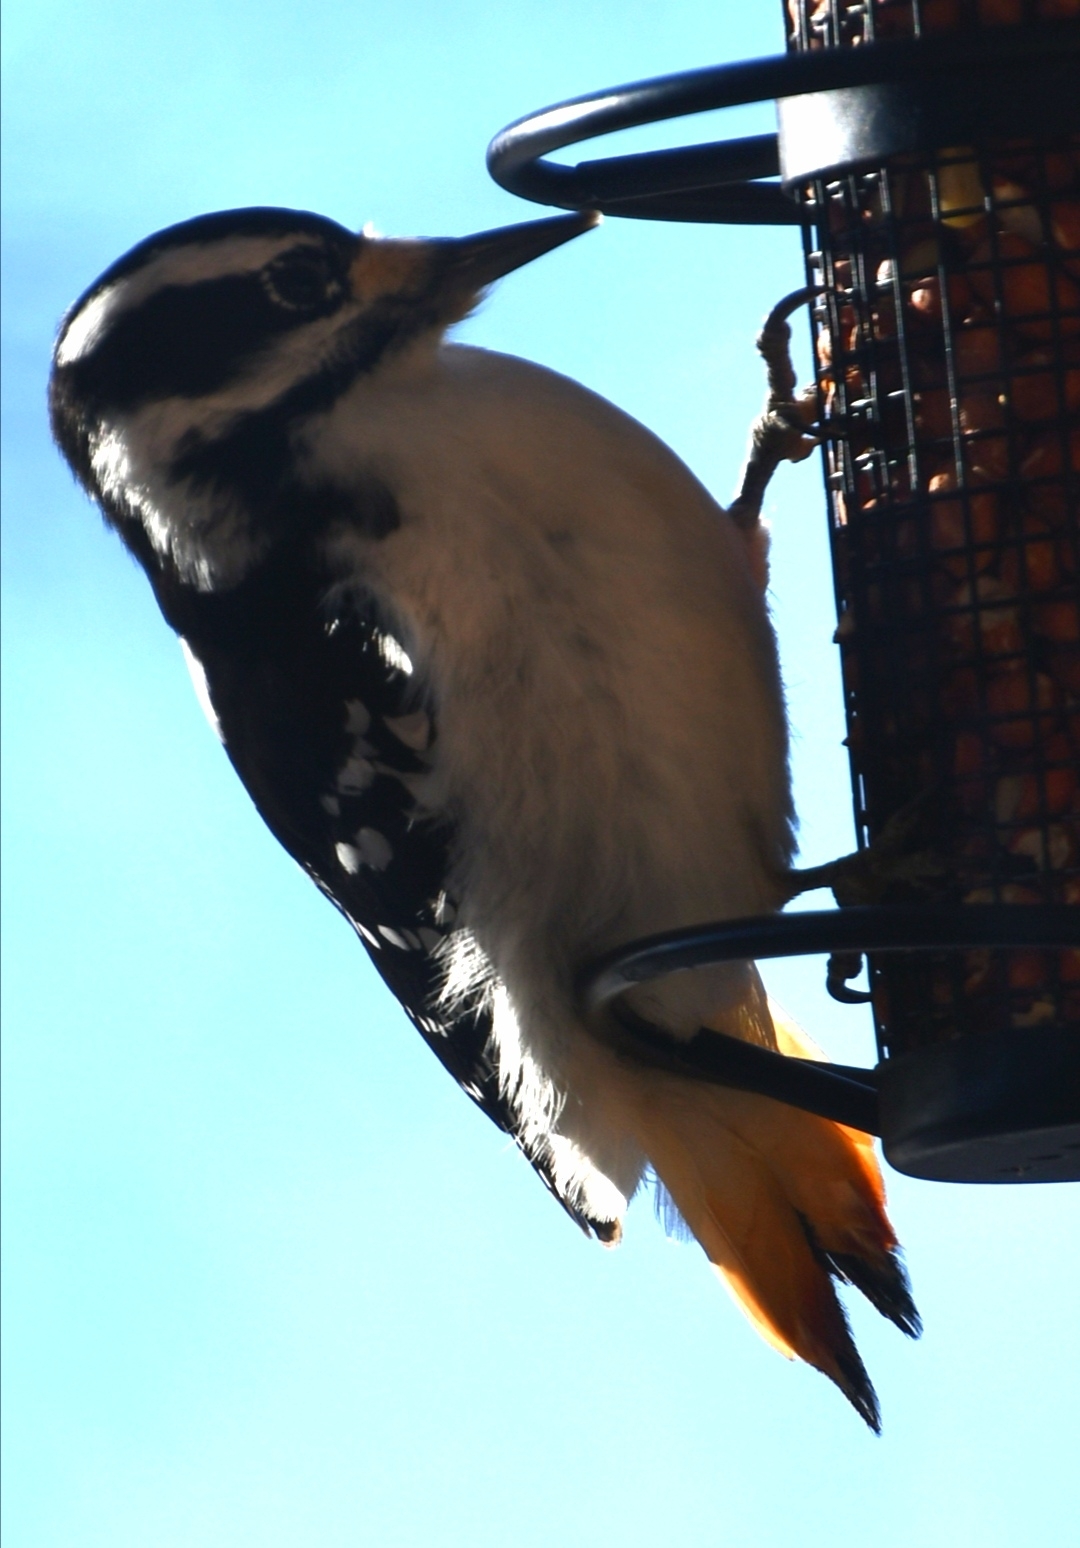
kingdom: Animalia
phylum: Chordata
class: Aves
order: Piciformes
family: Picidae
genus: Leuconotopicus
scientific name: Leuconotopicus villosus
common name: Hairy woodpecker
